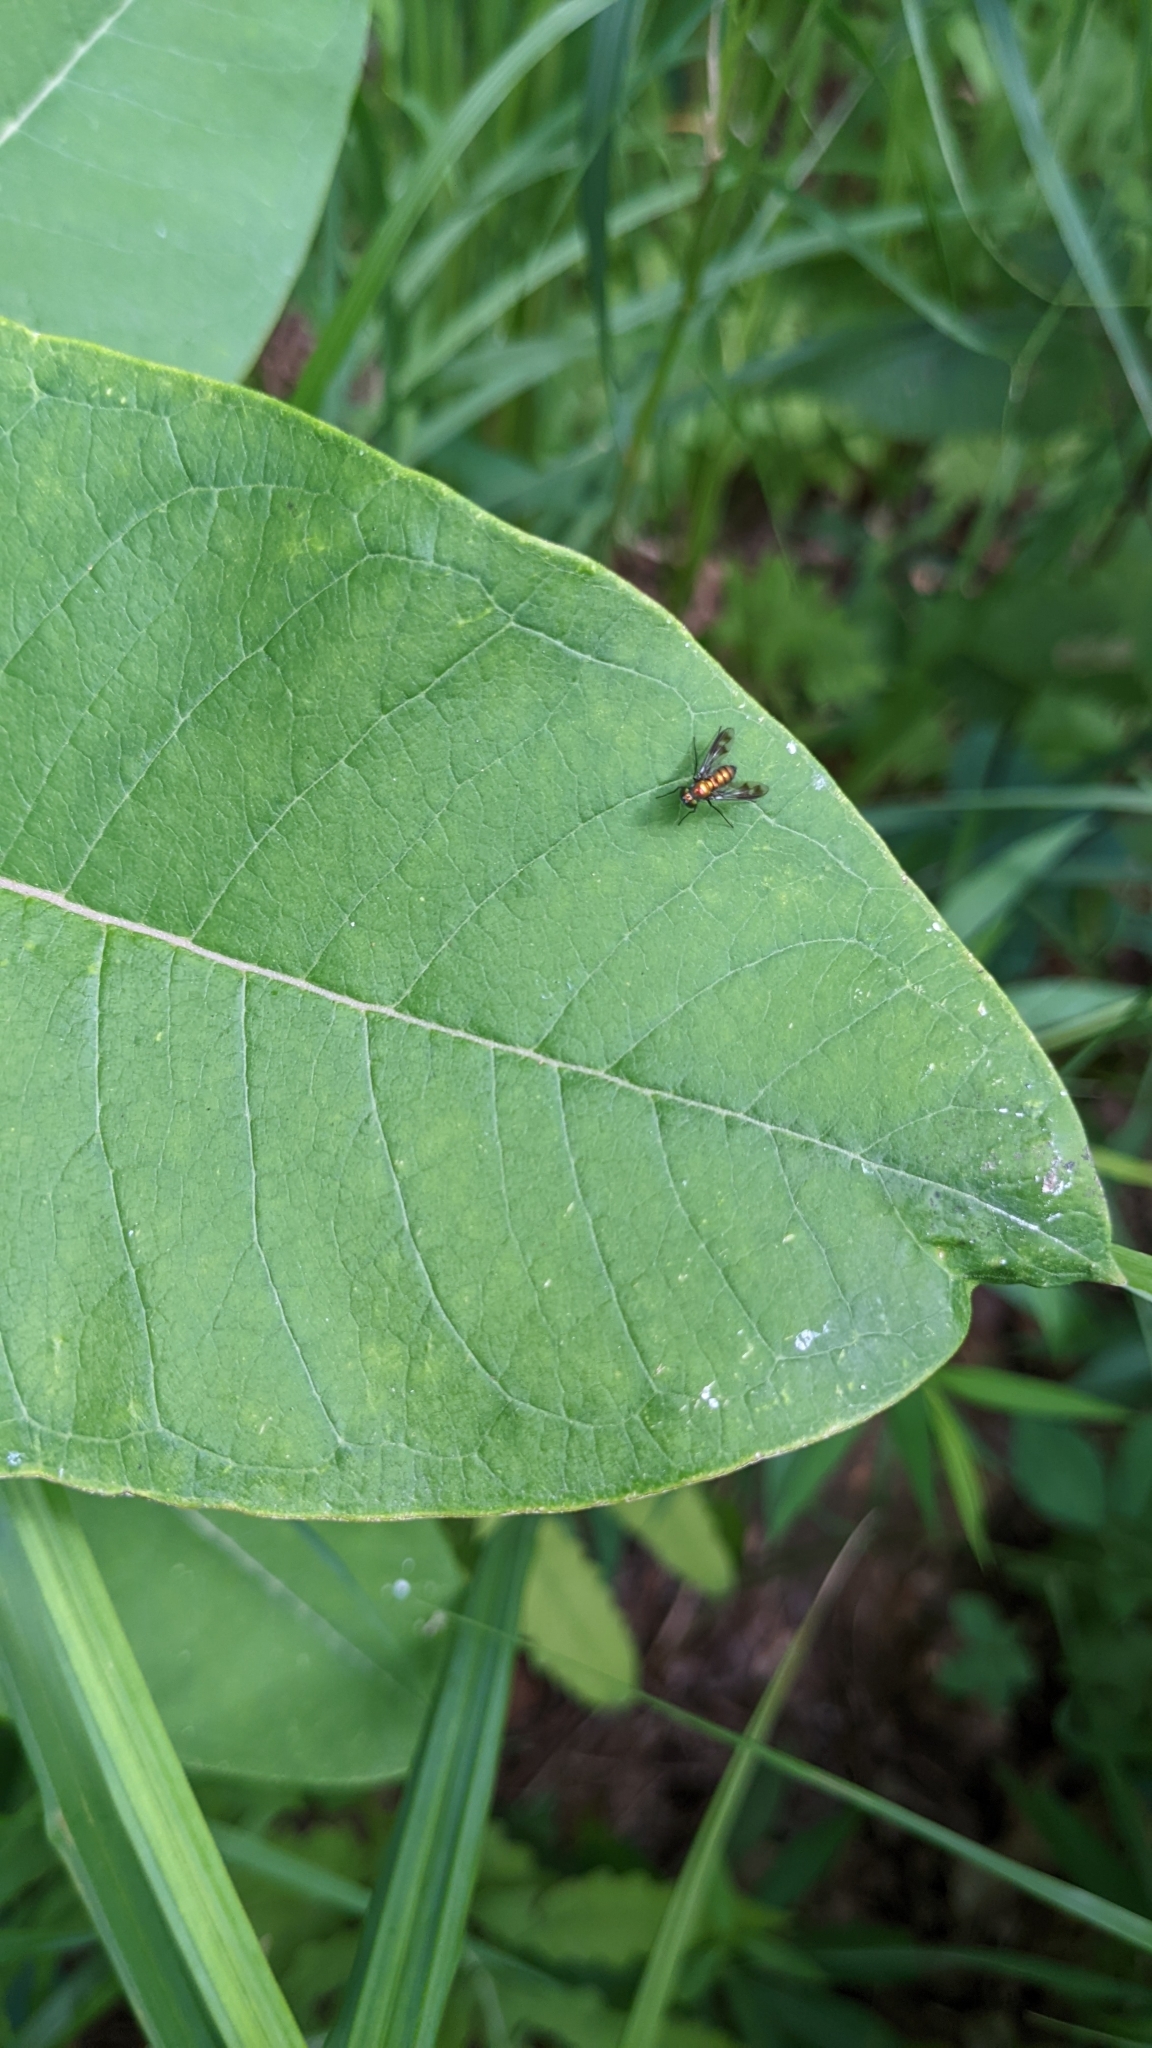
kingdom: Animalia
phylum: Arthropoda
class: Insecta
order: Diptera
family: Dolichopodidae
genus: Condylostylus
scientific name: Condylostylus patibulatus
